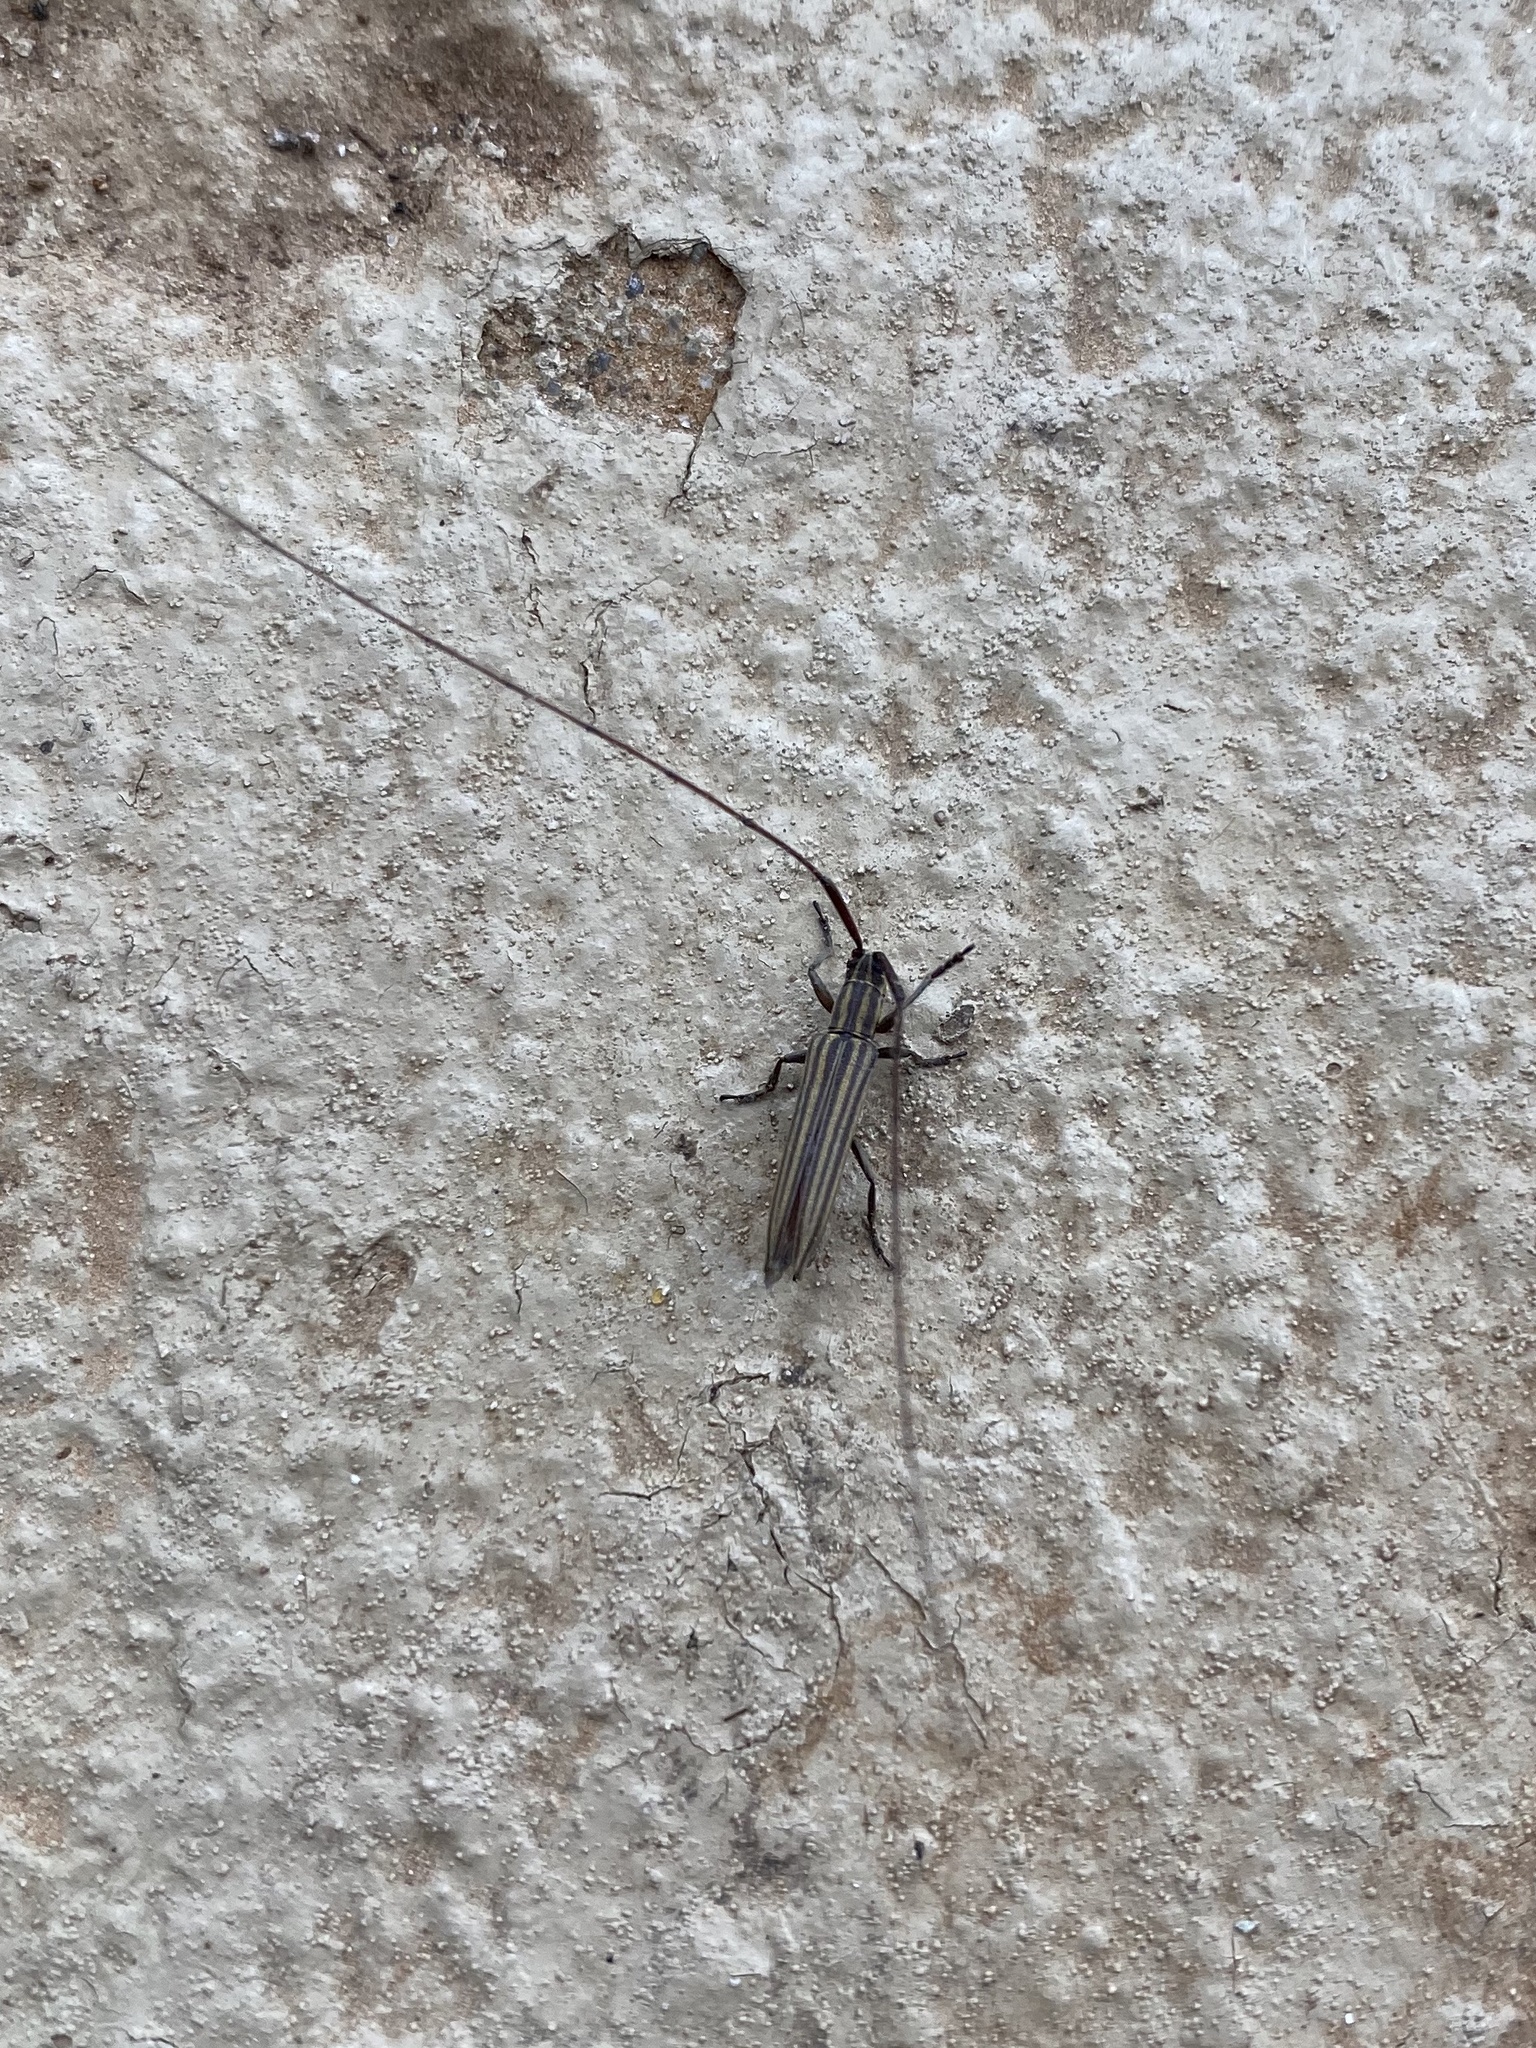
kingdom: Animalia
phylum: Arthropoda
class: Insecta
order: Coleoptera
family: Cerambycidae
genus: Hippopsis
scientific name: Hippopsis
